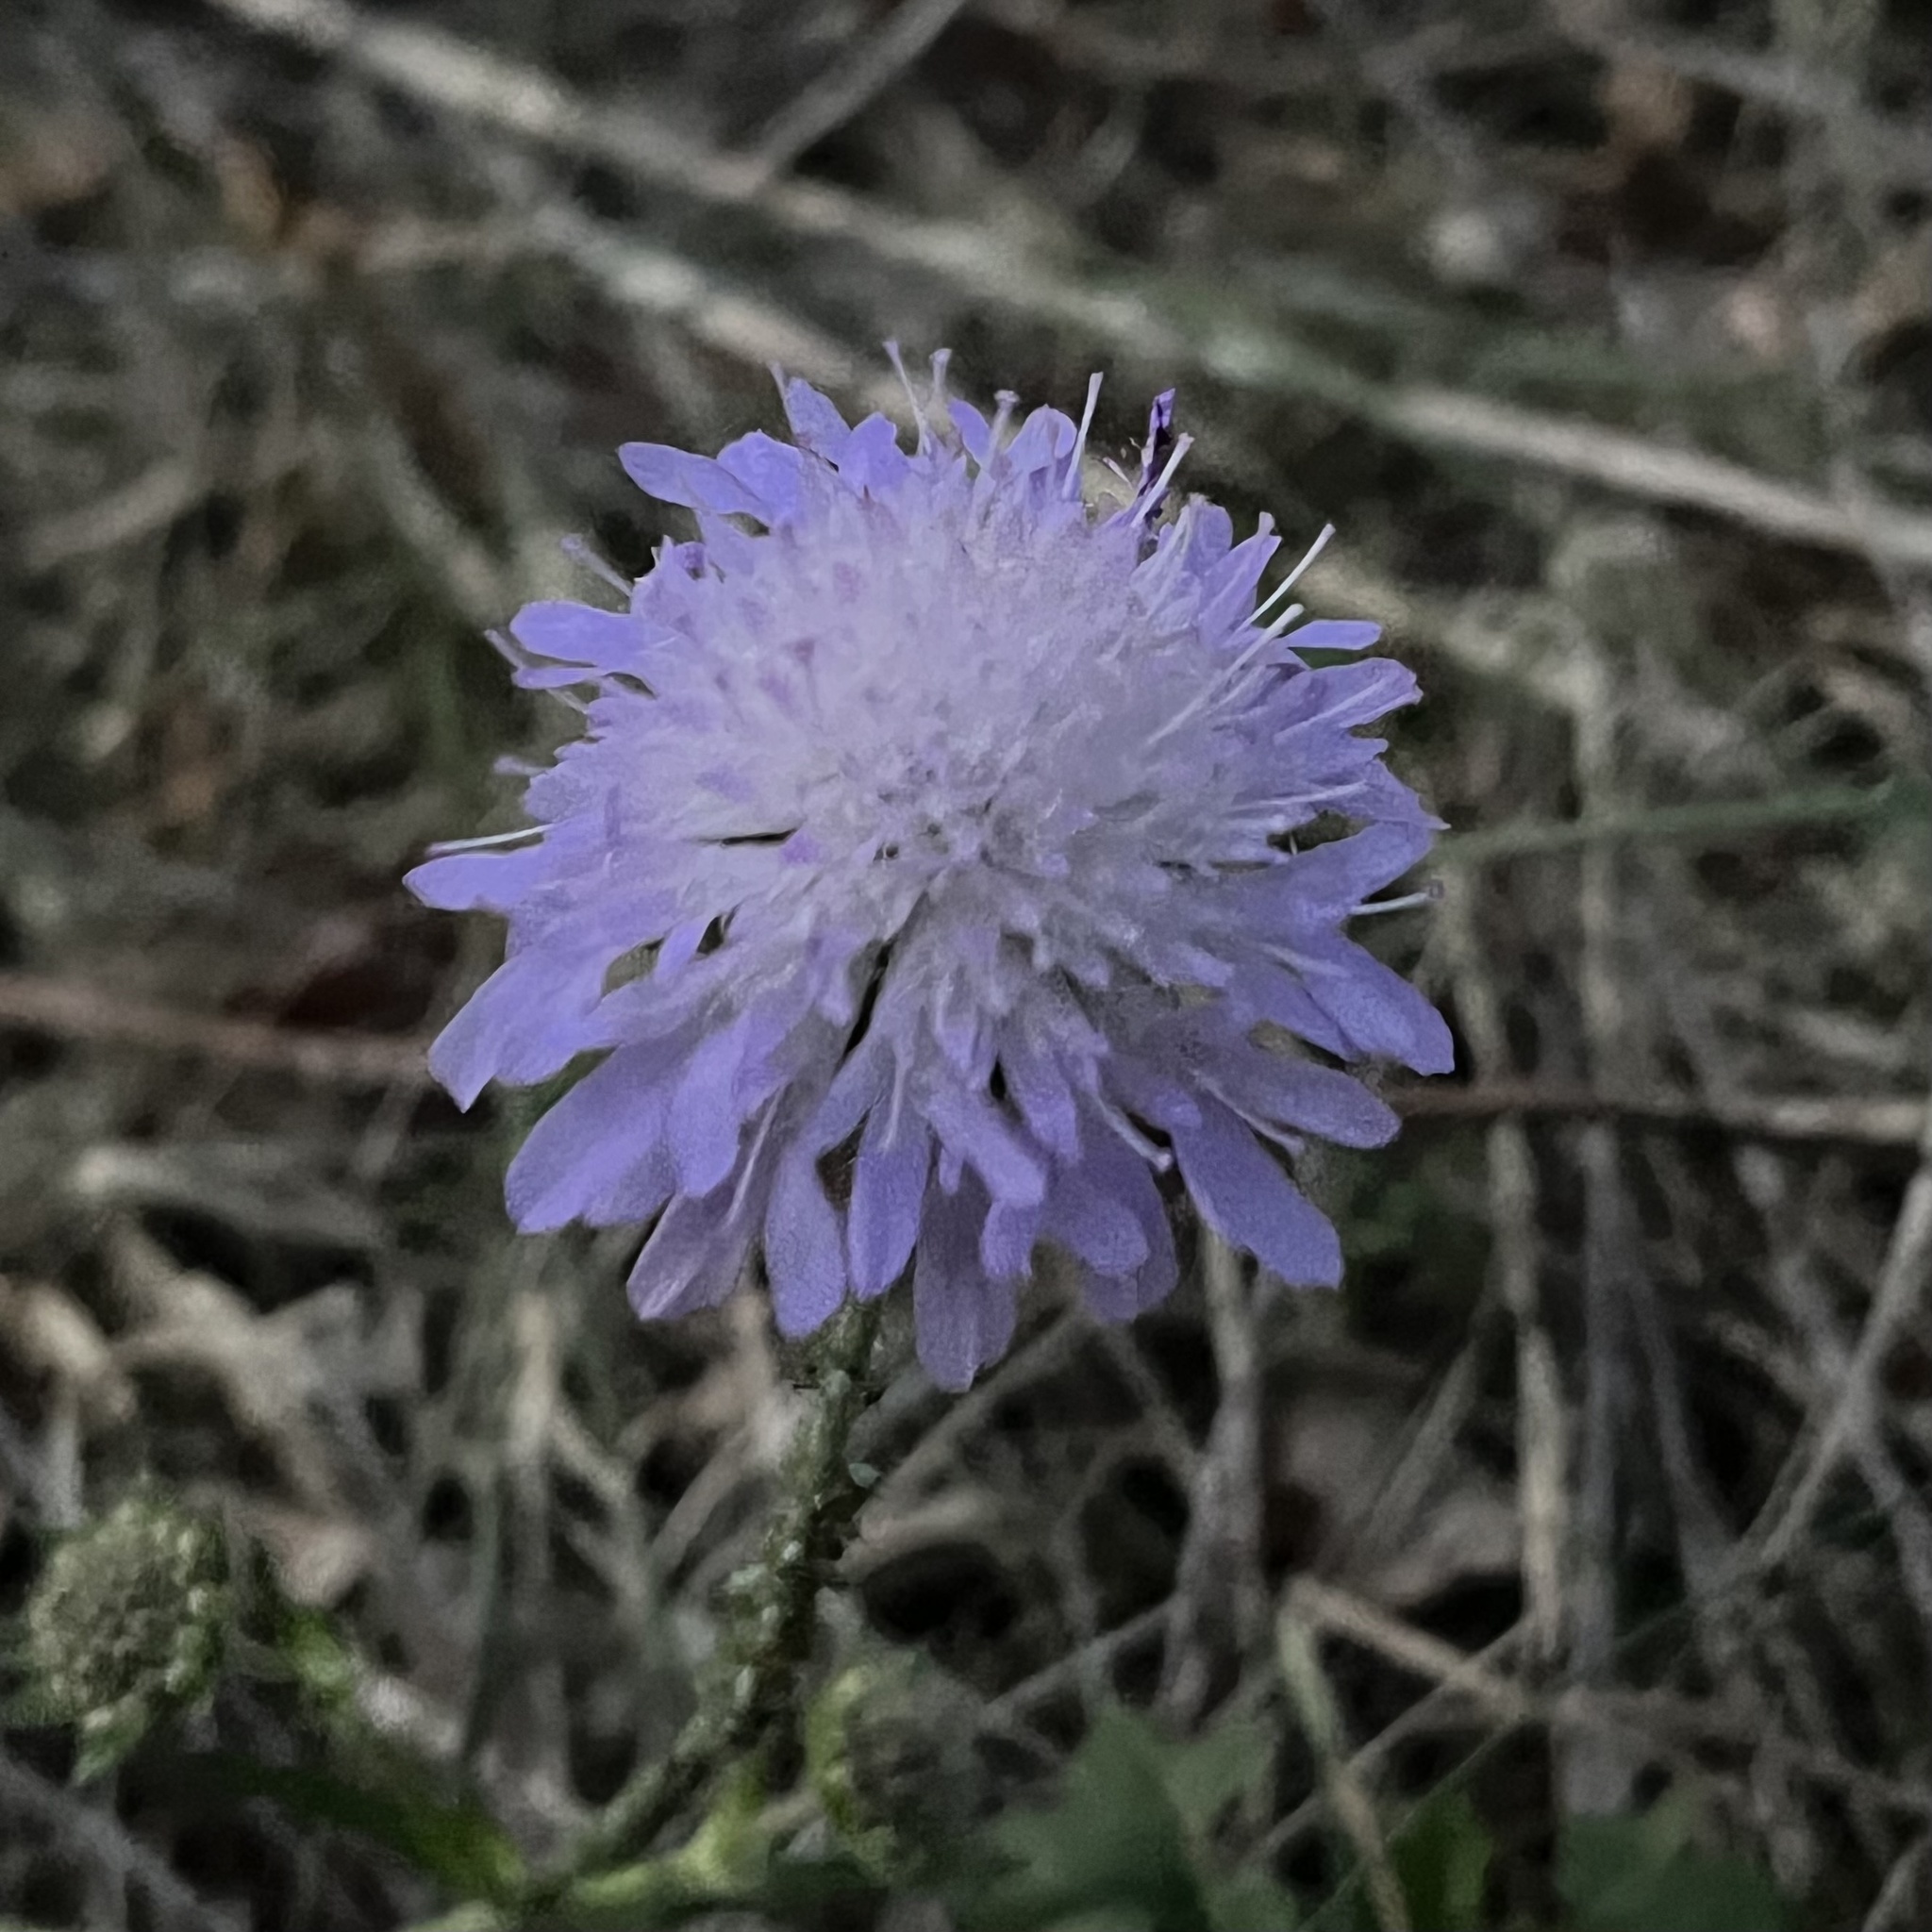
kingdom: Plantae
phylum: Tracheophyta
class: Magnoliopsida
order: Dipsacales
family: Caprifoliaceae
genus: Knautia
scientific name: Knautia arvensis
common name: Field scabiosa
